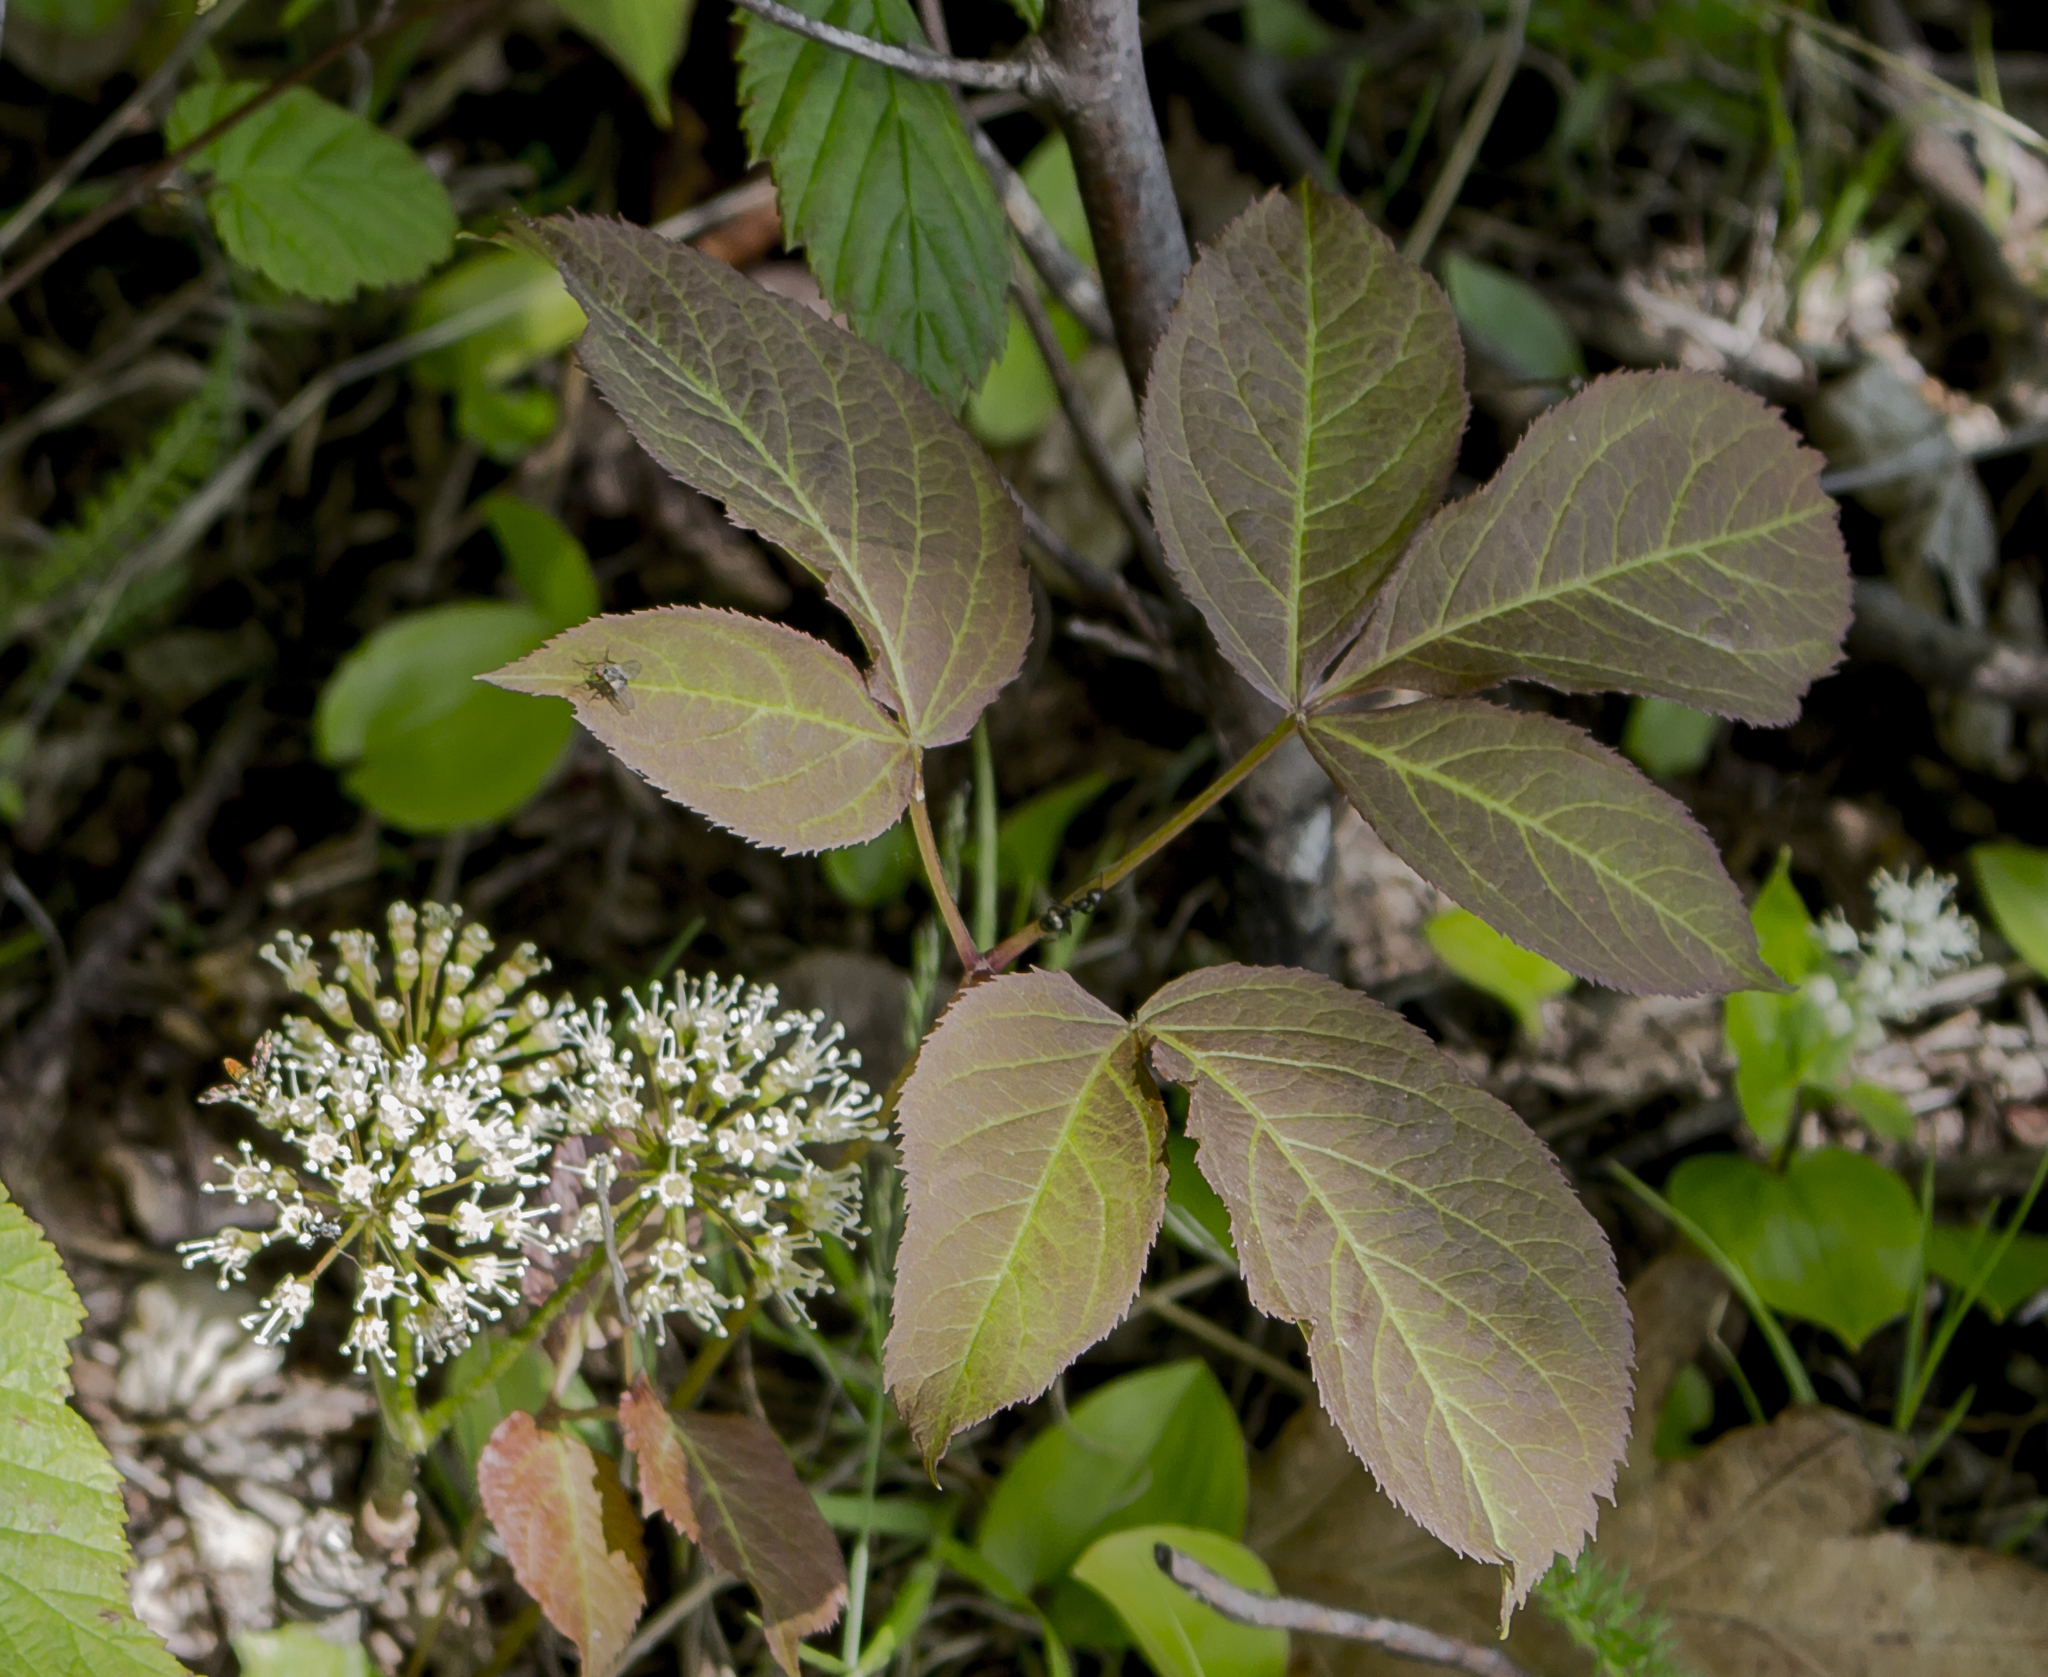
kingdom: Plantae
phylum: Tracheophyta
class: Magnoliopsida
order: Apiales
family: Araliaceae
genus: Aralia
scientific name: Aralia nudicaulis
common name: Wild sarsaparilla
